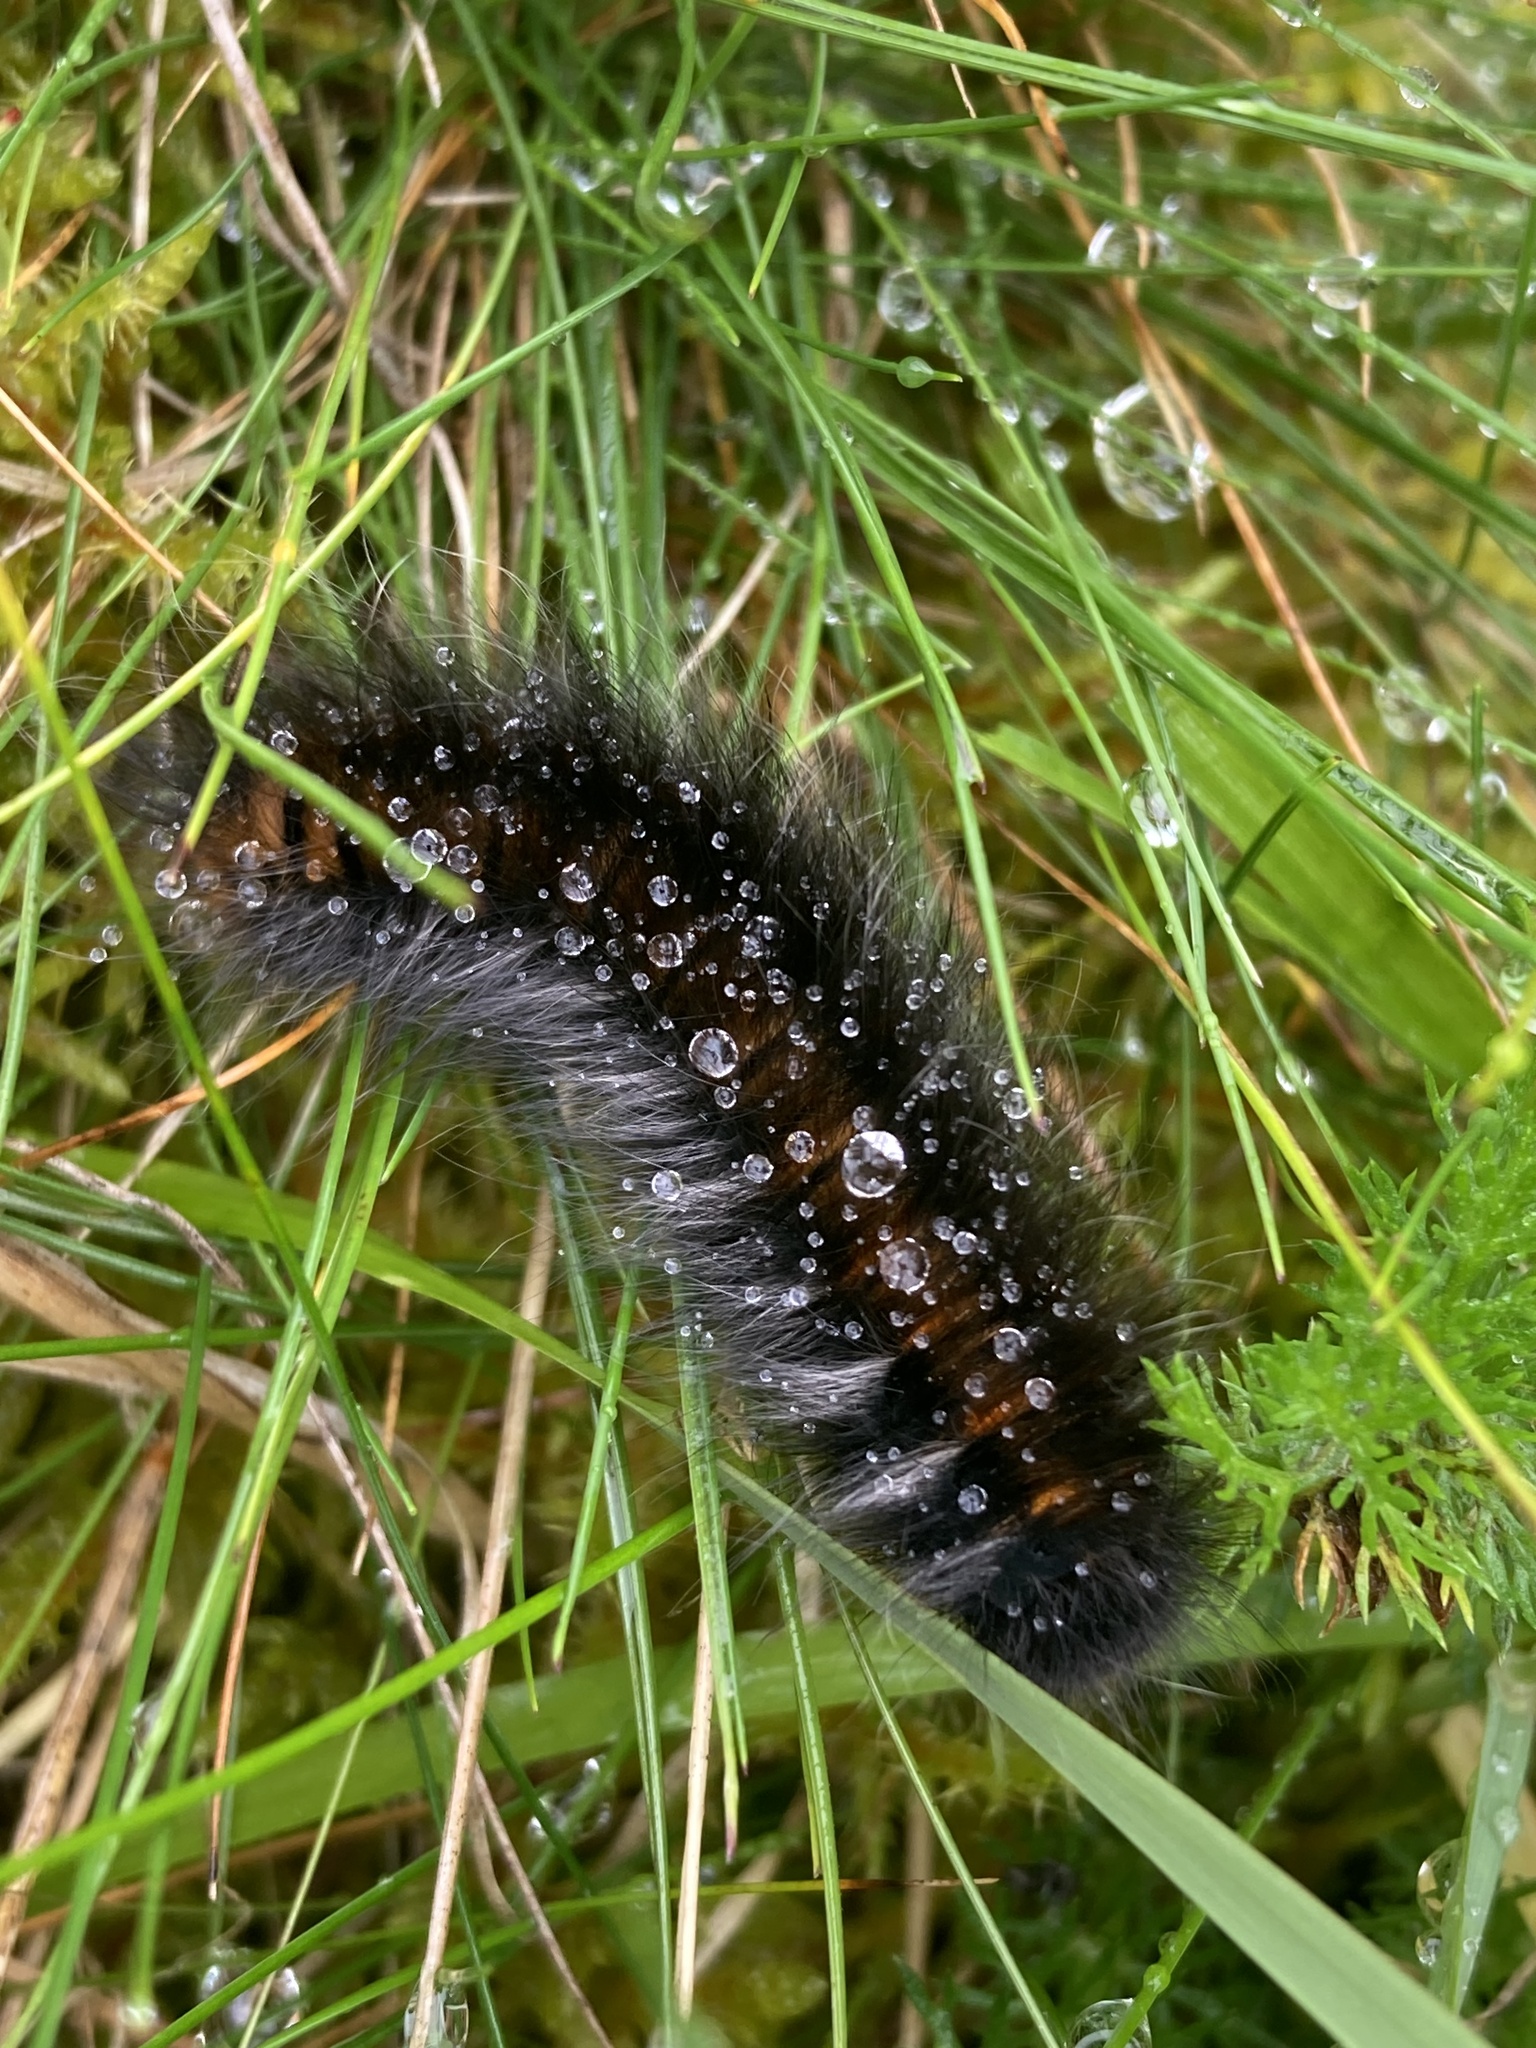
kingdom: Animalia
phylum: Arthropoda
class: Insecta
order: Lepidoptera
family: Lasiocampidae
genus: Macrothylacia
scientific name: Macrothylacia rubi
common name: Fox moth
